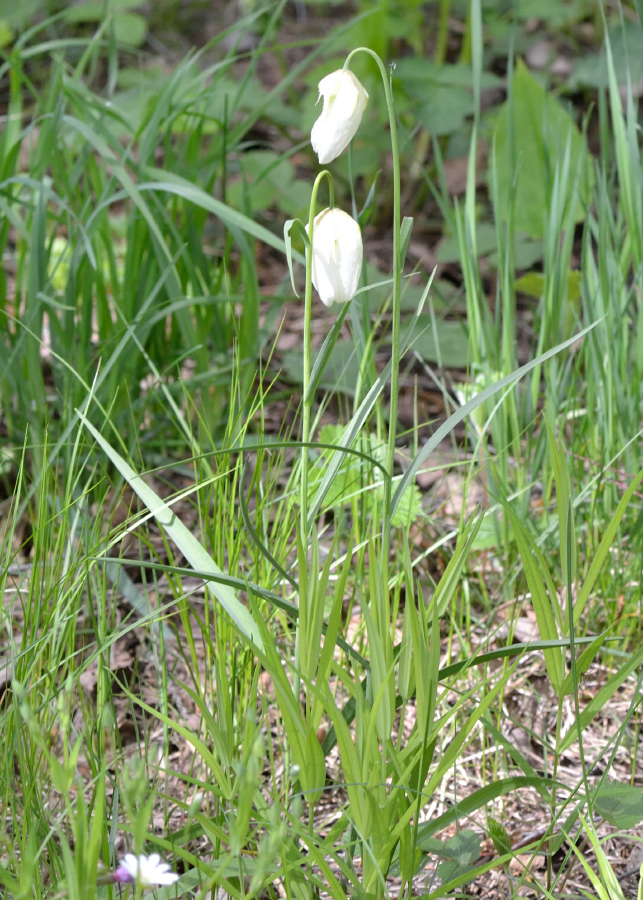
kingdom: Plantae
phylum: Tracheophyta
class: Liliopsida
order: Liliales
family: Liliaceae
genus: Fritillaria
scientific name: Fritillaria meleagris
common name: Fritillary
